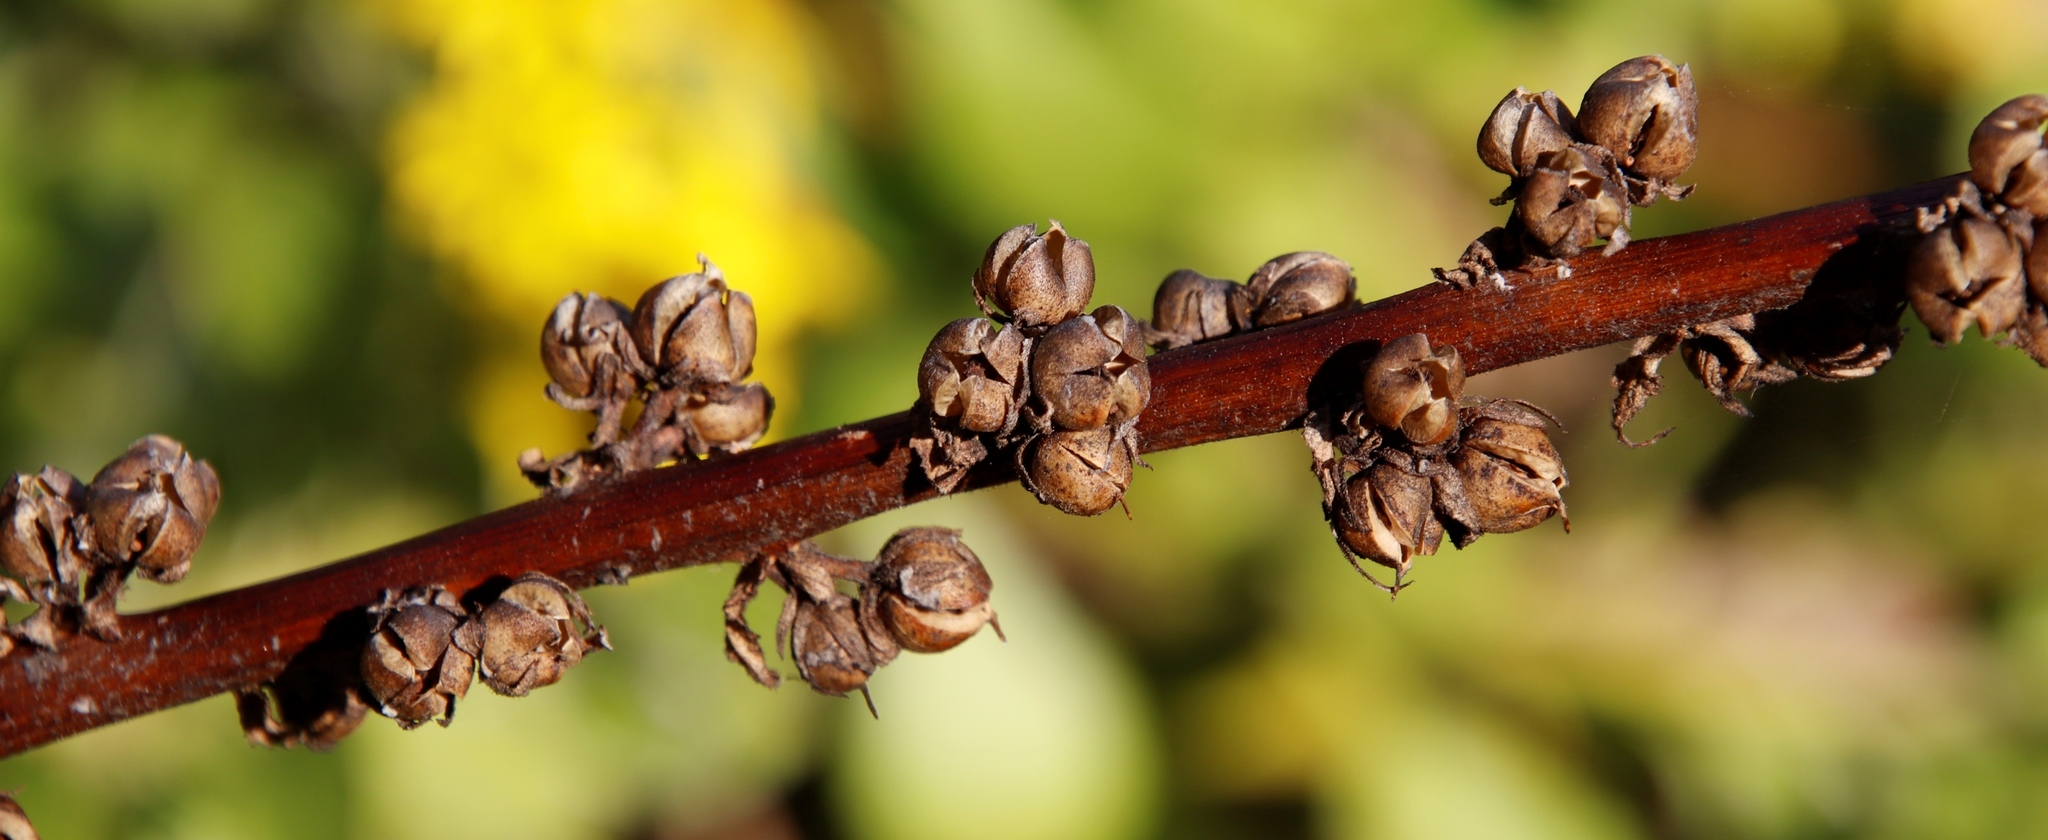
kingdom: Plantae
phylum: Tracheophyta
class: Magnoliopsida
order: Lamiales
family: Scrophulariaceae
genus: Verbascum
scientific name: Verbascum virgatum
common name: Twiggy mullein
